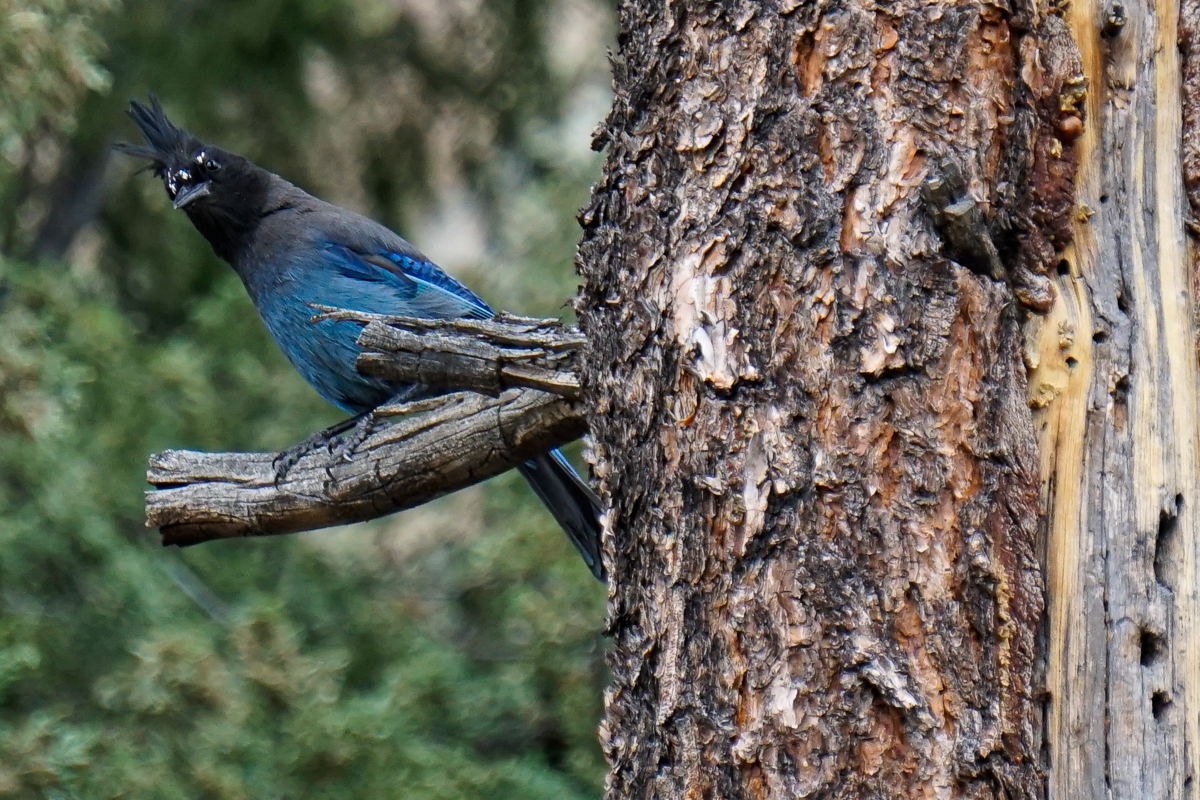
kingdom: Animalia
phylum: Chordata
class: Aves
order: Passeriformes
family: Corvidae
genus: Cyanocitta
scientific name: Cyanocitta stelleri
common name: Steller's jay
